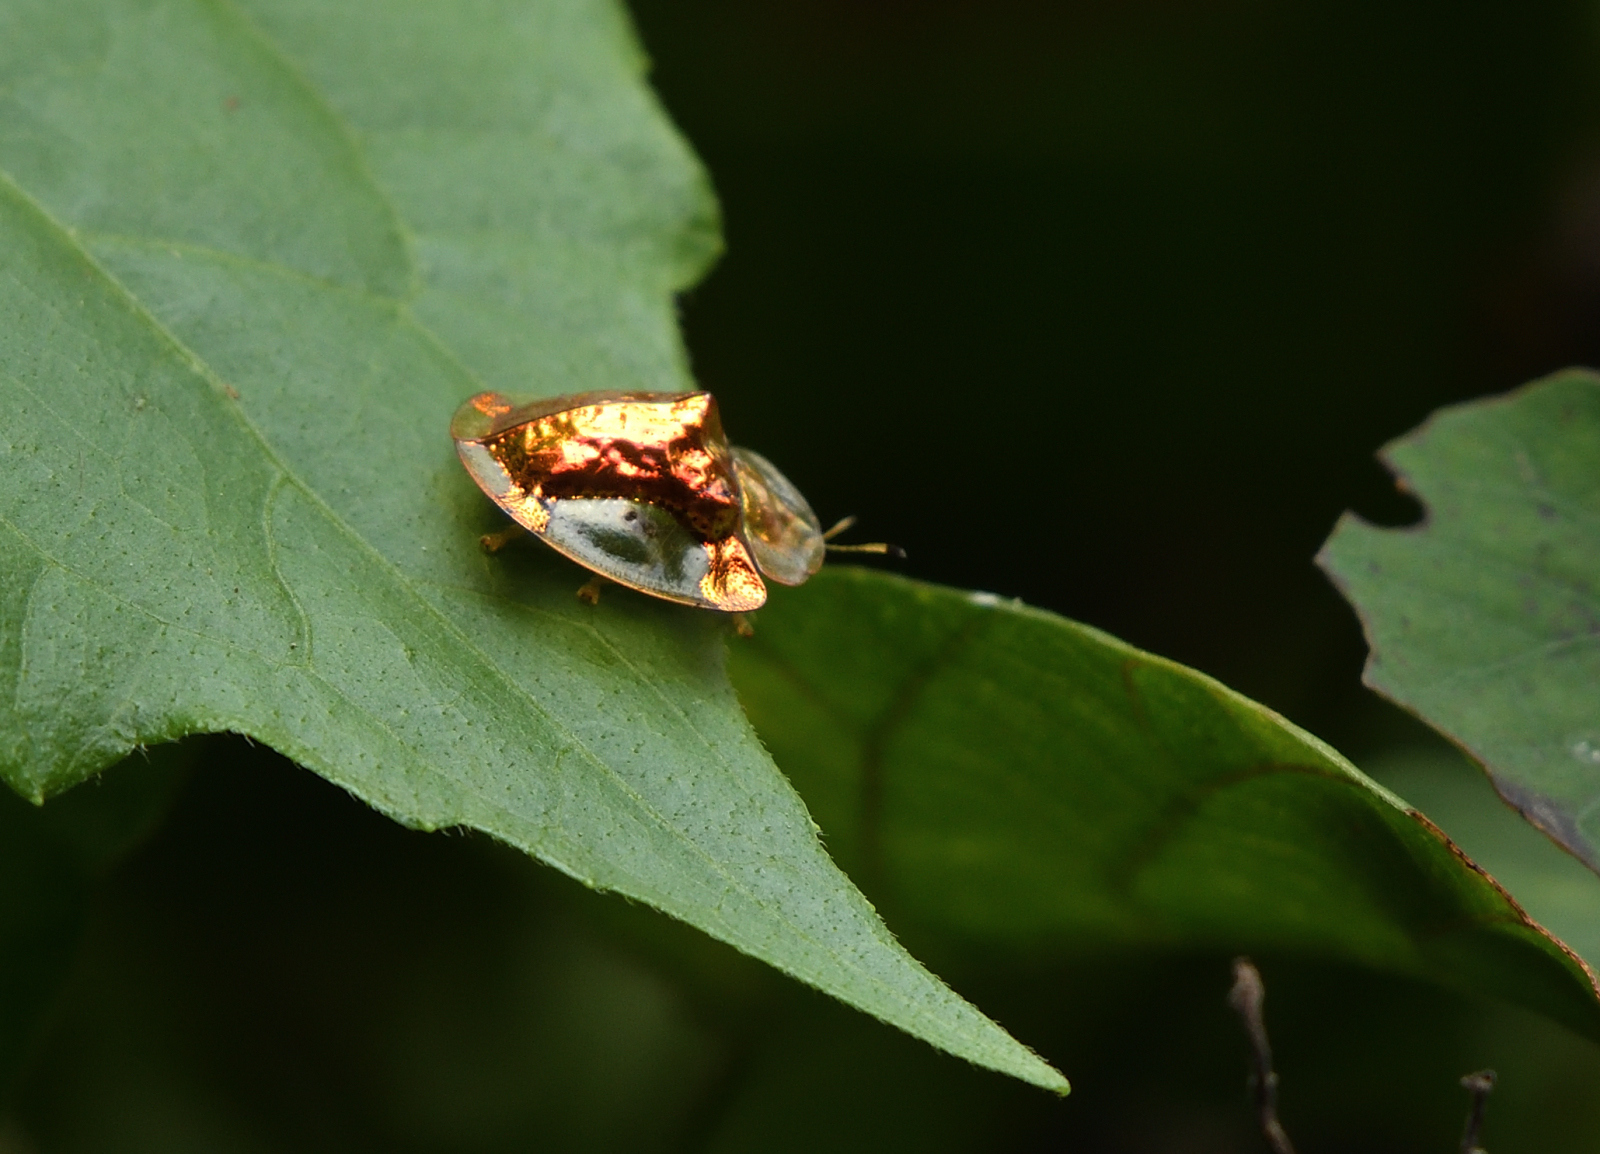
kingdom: Animalia
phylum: Arthropoda
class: Insecta
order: Coleoptera
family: Chrysomelidae
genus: Aspidimorpha
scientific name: Aspidimorpha sanctaecrucis
